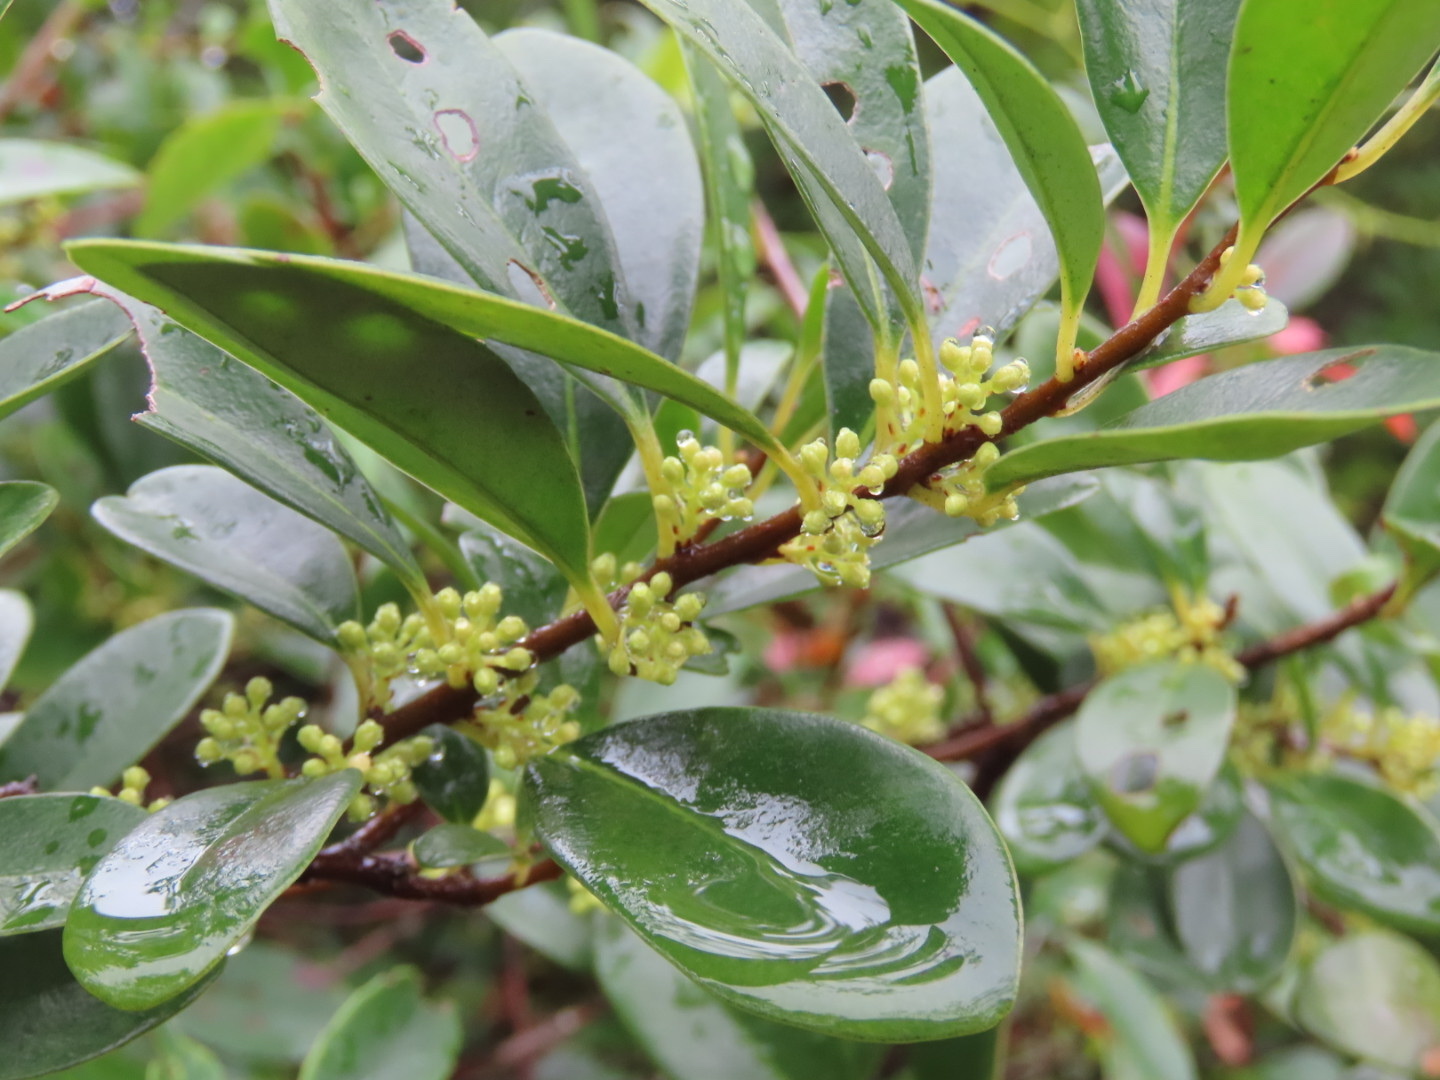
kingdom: Plantae
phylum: Tracheophyta
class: Magnoliopsida
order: Ericales
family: Primulaceae
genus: Embelia
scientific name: Embelia laeta
